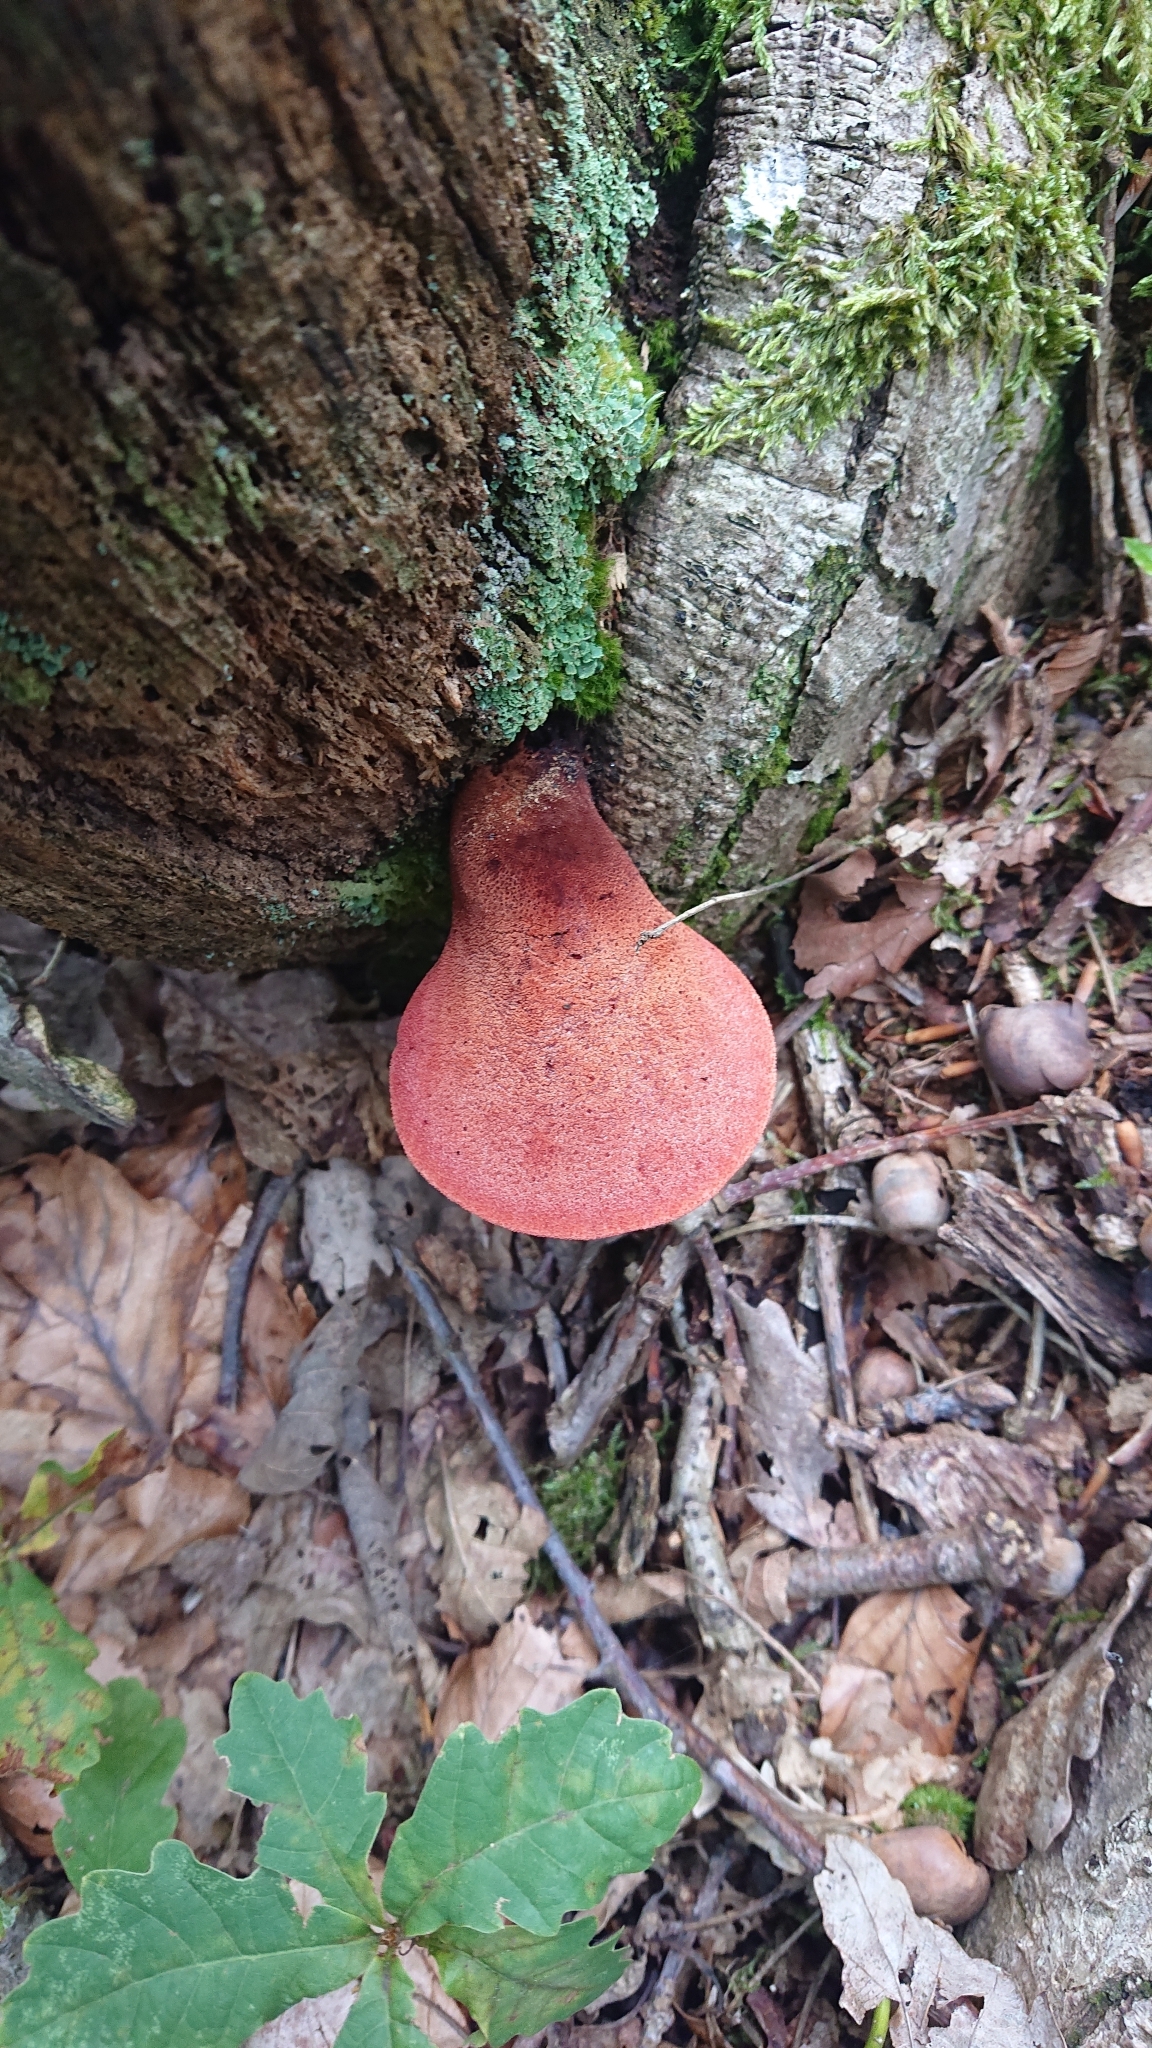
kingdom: Fungi
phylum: Basidiomycota
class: Agaricomycetes
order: Agaricales
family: Fistulinaceae
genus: Fistulina
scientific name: Fistulina hepatica
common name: Beef-steak fungus
